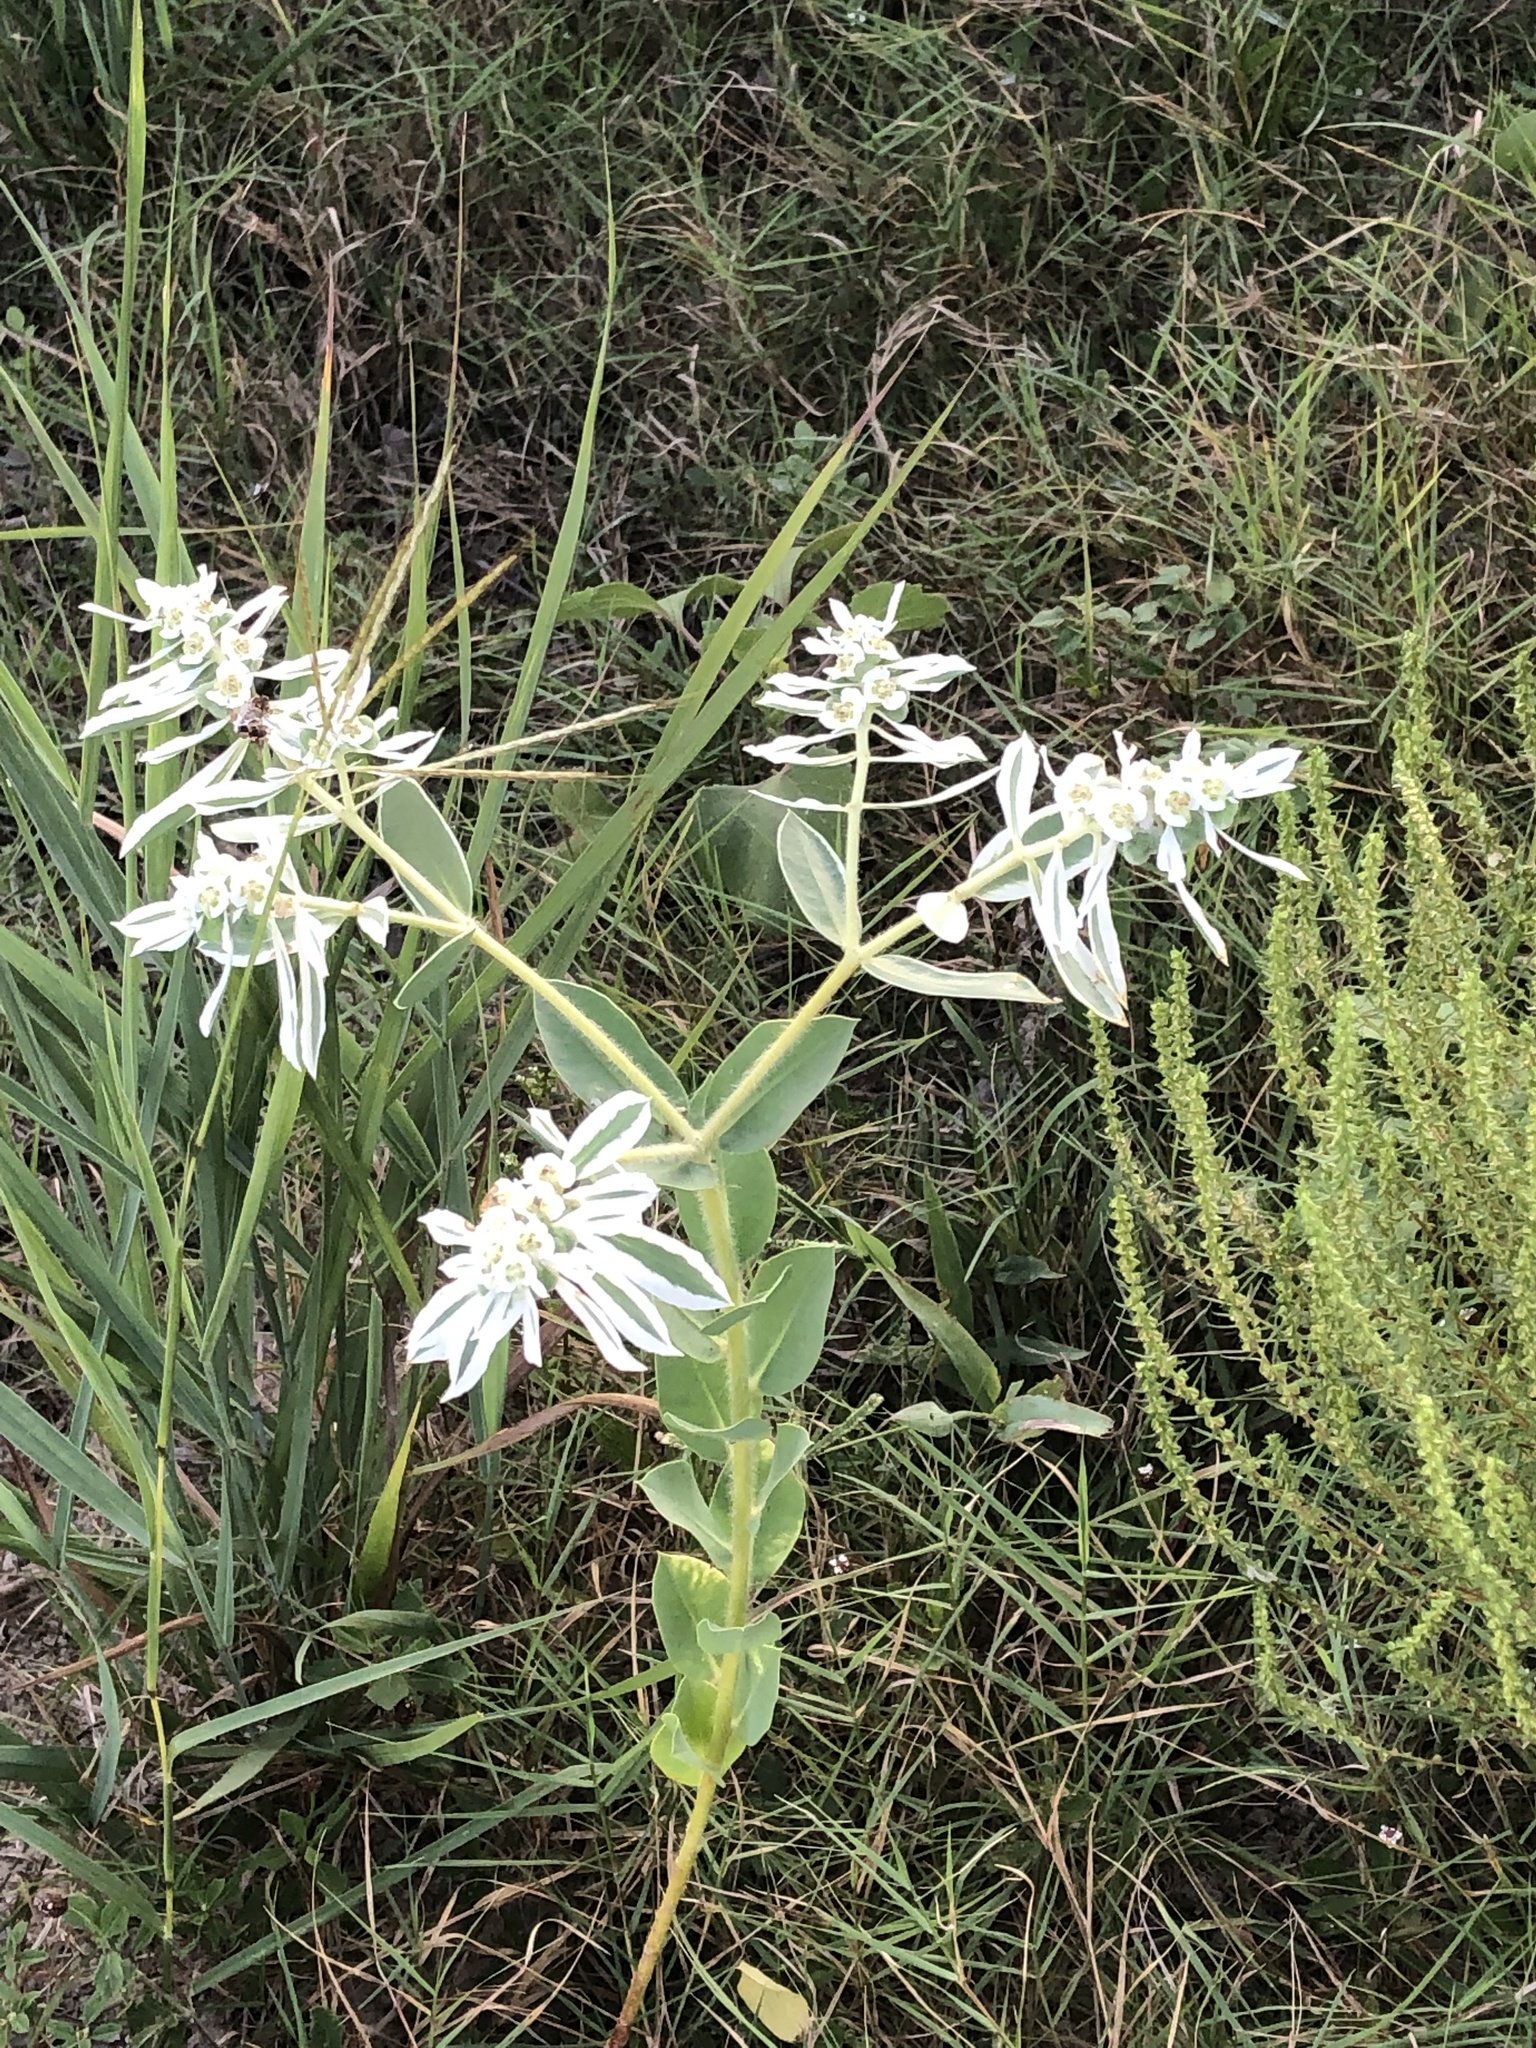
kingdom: Plantae
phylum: Tracheophyta
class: Magnoliopsida
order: Malpighiales
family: Euphorbiaceae
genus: Euphorbia
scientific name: Euphorbia marginata
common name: Ghostweed
